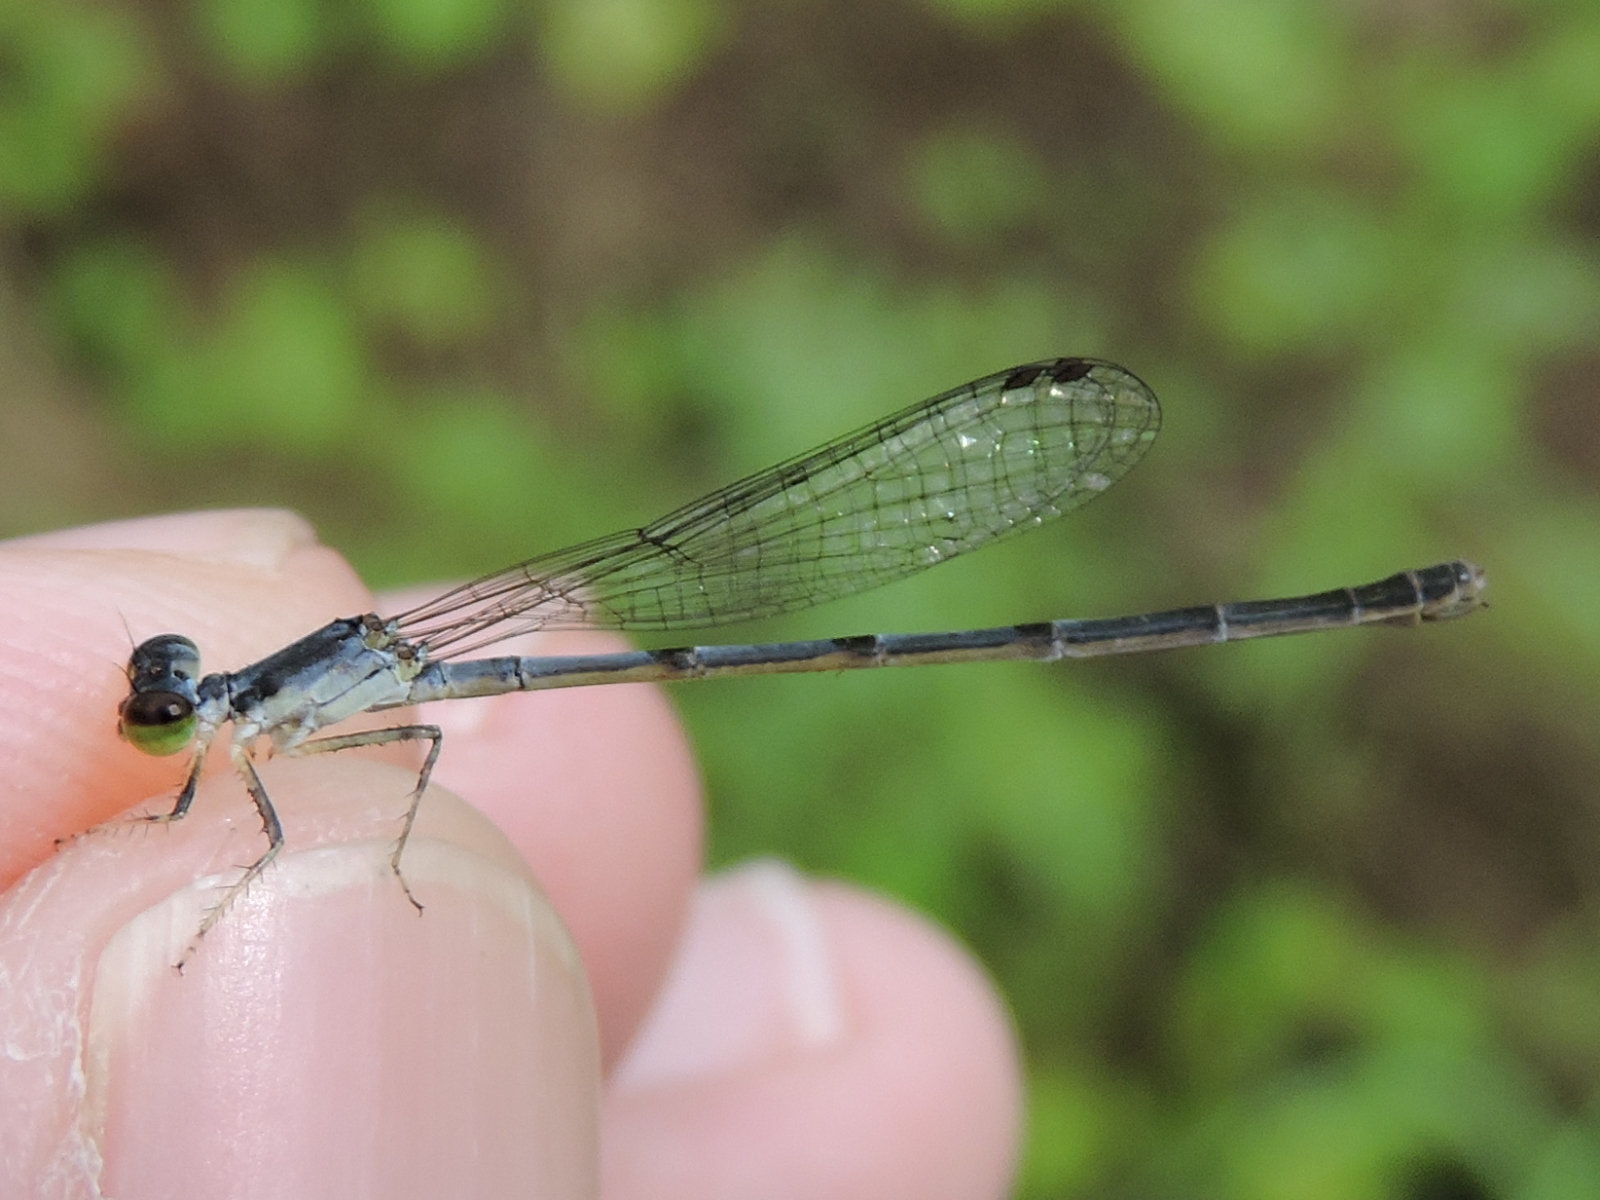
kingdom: Animalia
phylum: Arthropoda
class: Insecta
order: Odonata
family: Coenagrionidae
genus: Ischnura
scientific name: Ischnura posita
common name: Fragile forktail
